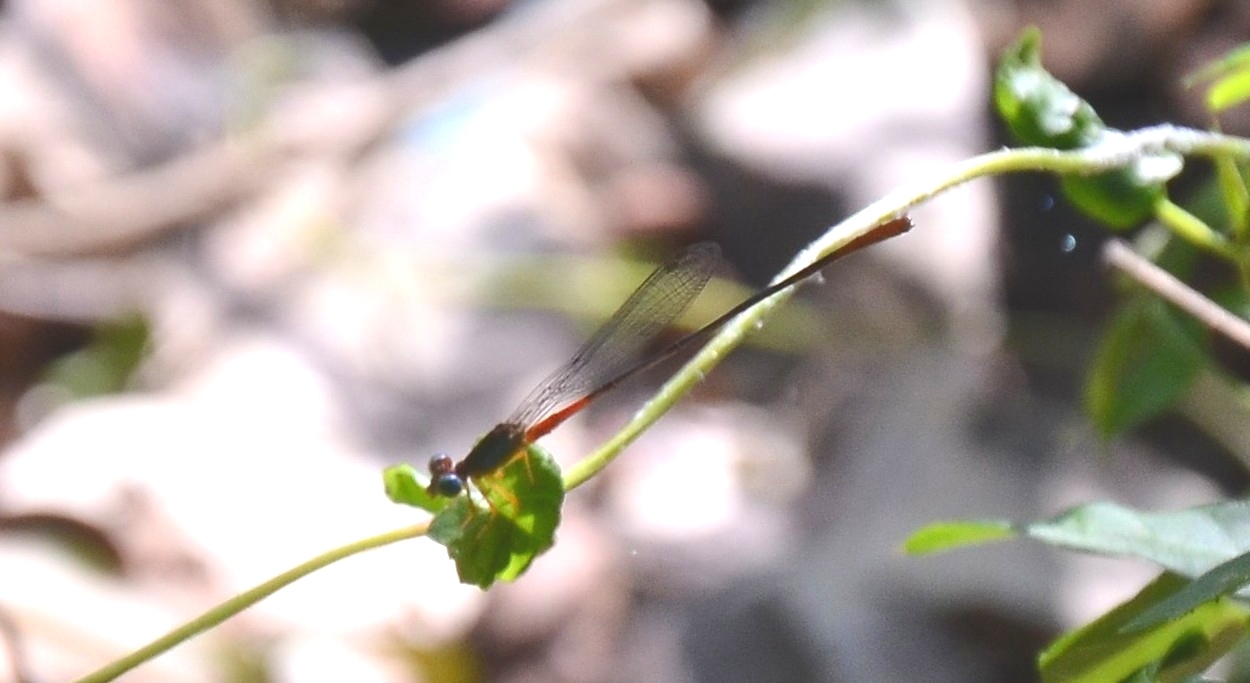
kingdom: Animalia
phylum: Arthropoda
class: Insecta
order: Odonata
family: Coenagrionidae
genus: Ceriagrion
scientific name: Ceriagrion cerinorubellum
